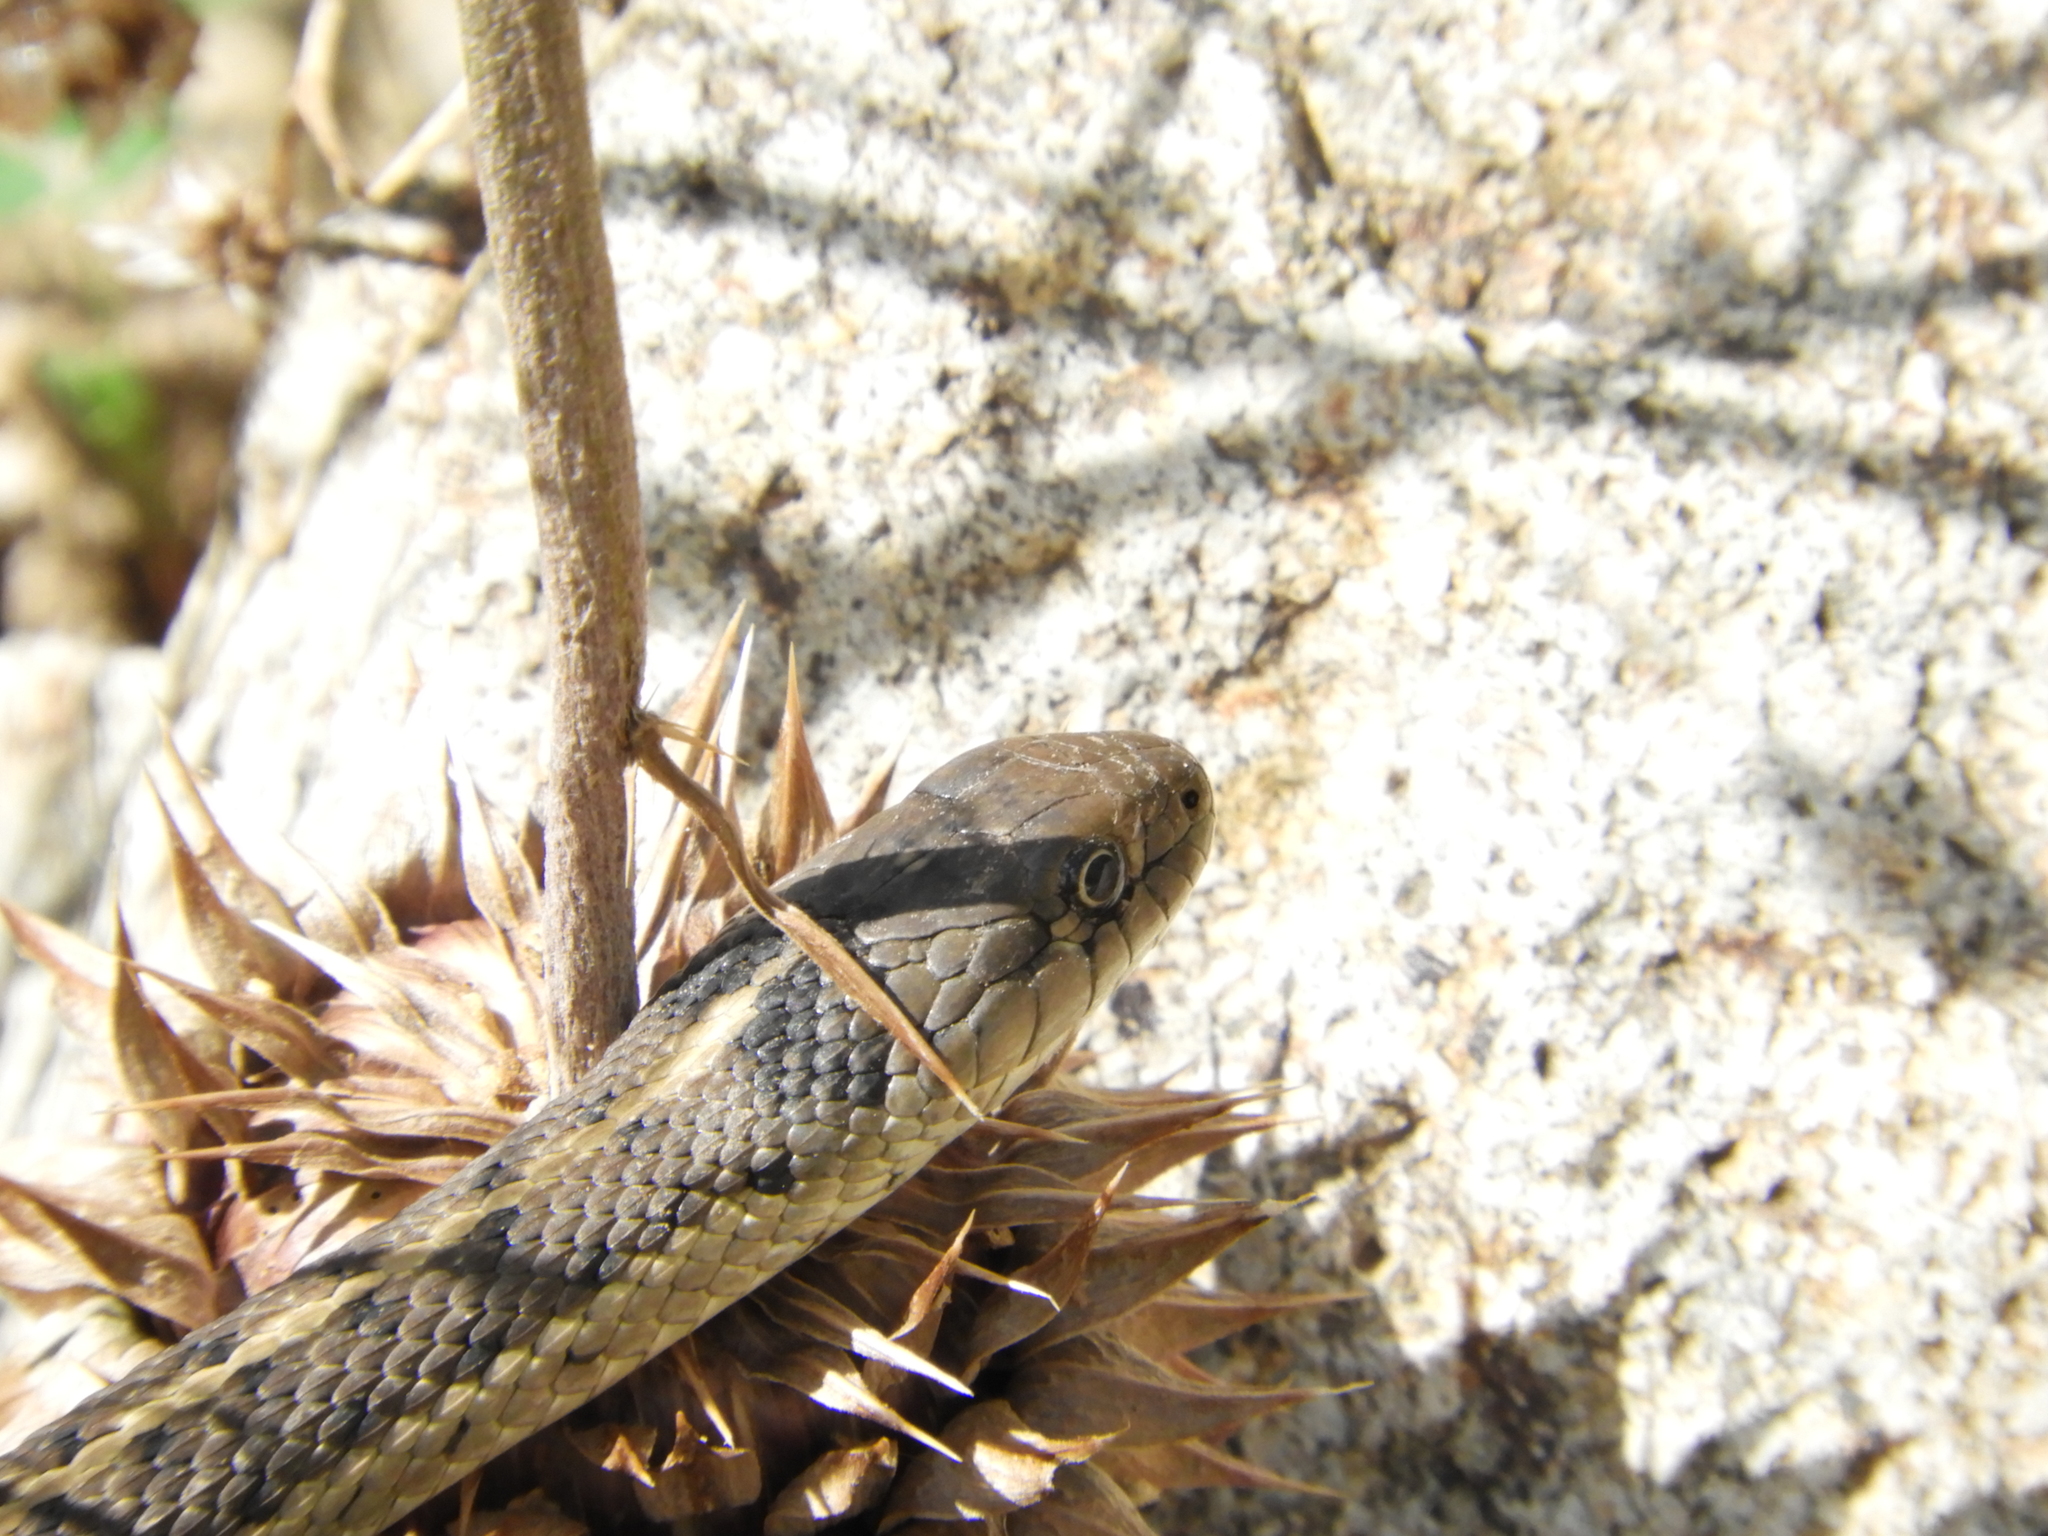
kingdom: Animalia
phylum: Chordata
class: Squamata
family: Colubridae
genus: Thamnophis
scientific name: Thamnophis elegans
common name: Western terrestrial garter snake
